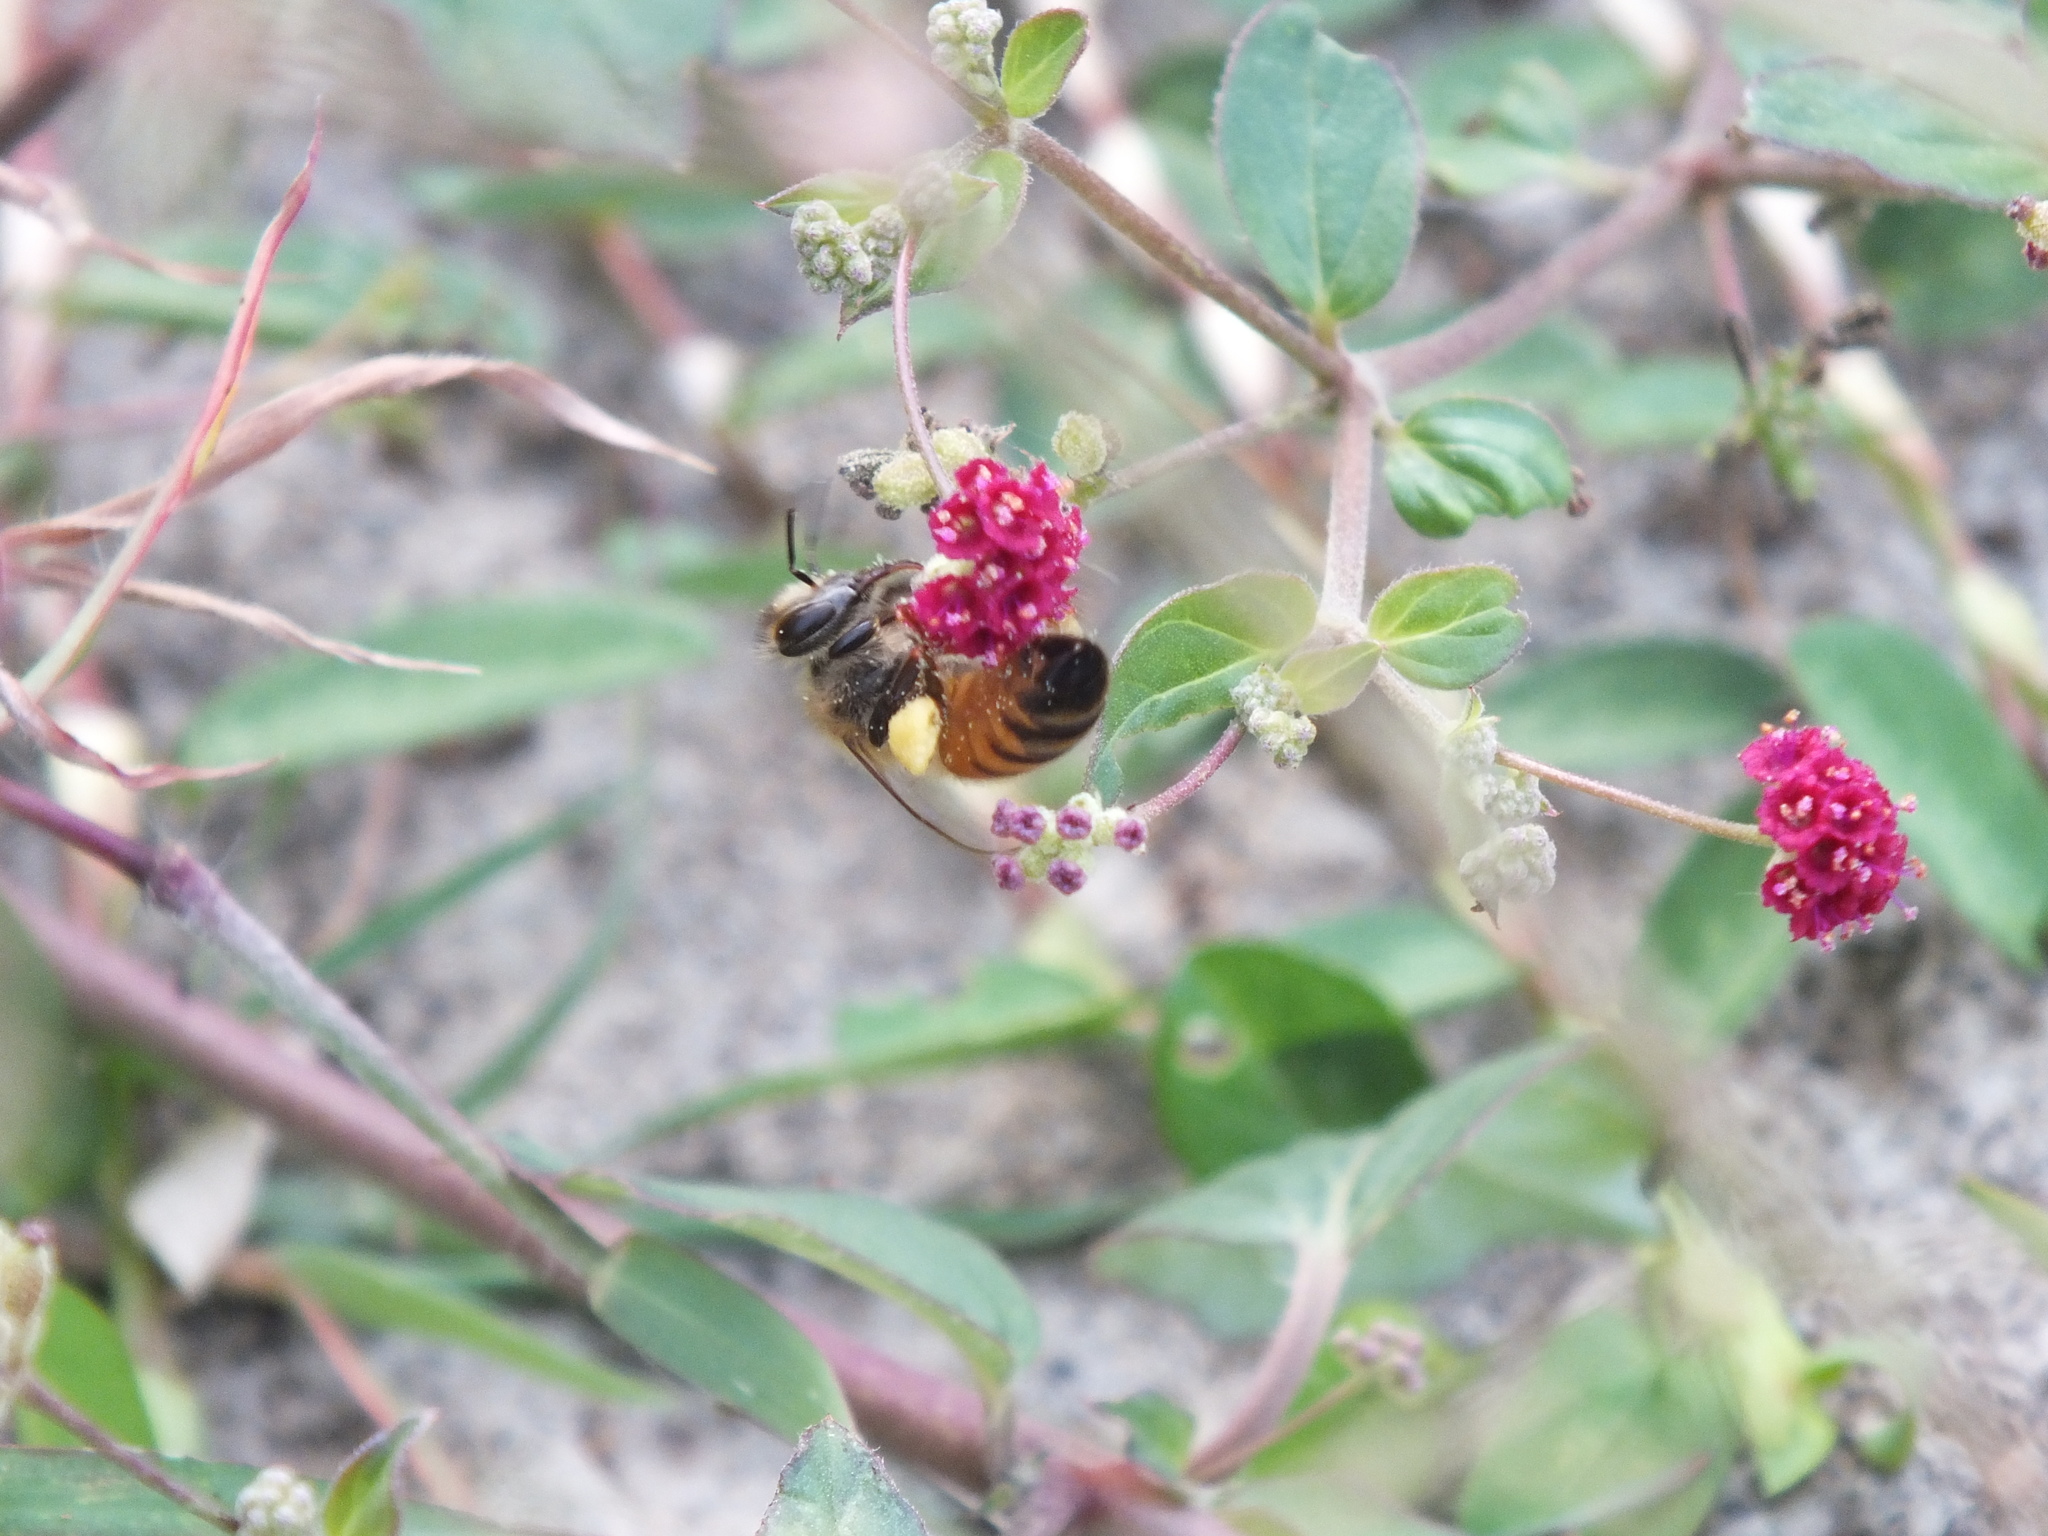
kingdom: Animalia
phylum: Arthropoda
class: Insecta
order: Hymenoptera
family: Apidae
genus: Apis
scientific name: Apis mellifera
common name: Honey bee
